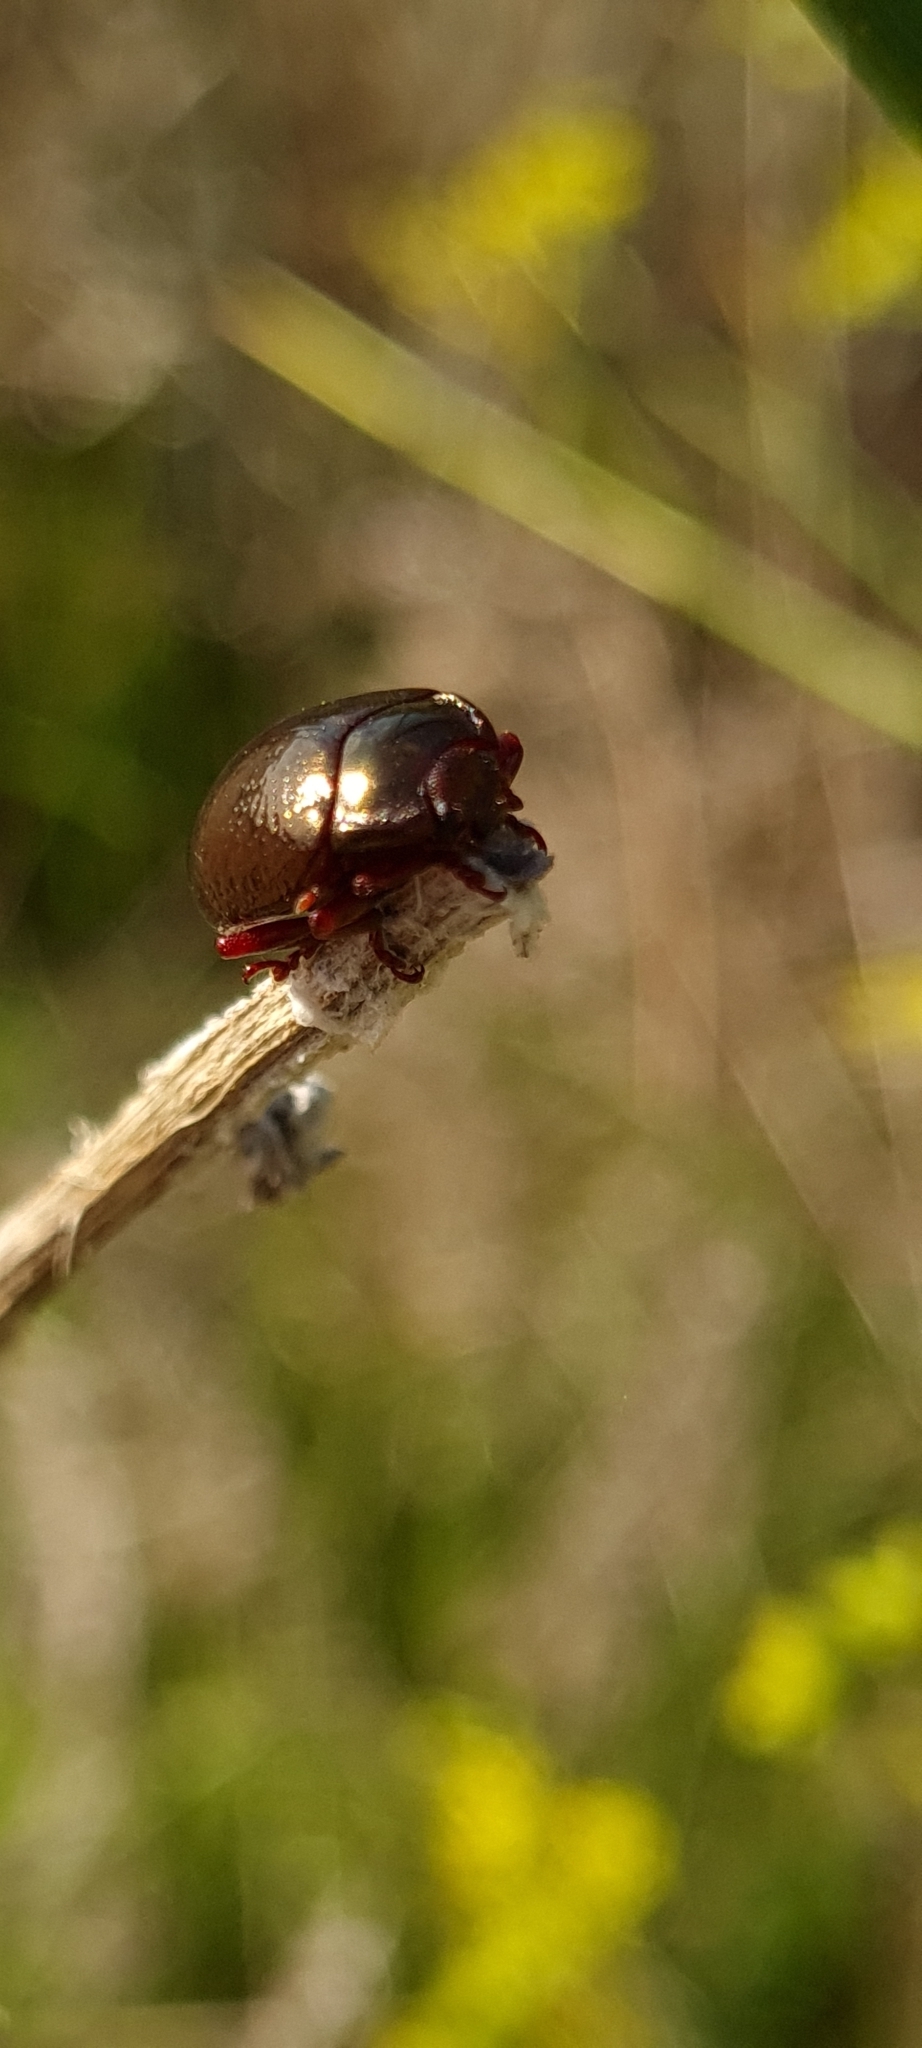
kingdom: Animalia
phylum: Arthropoda
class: Insecta
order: Coleoptera
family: Chrysomelidae
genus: Chrysolina
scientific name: Chrysolina bankii
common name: Leaf beetle
